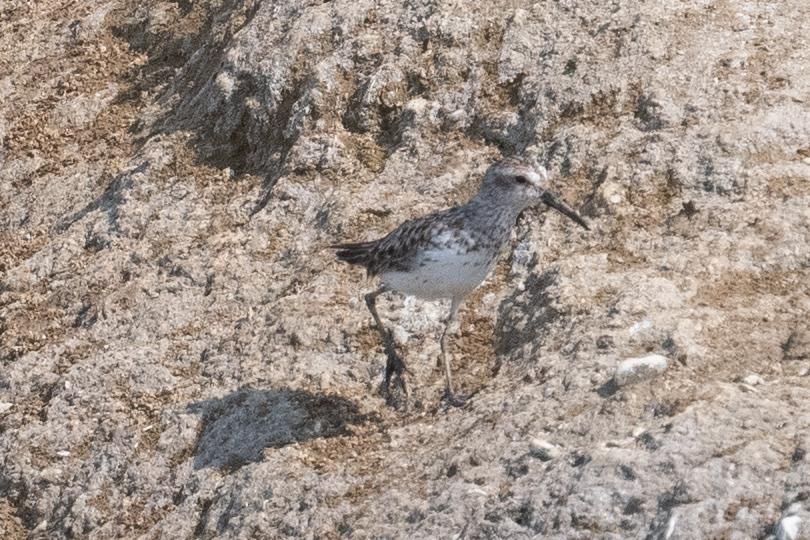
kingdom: Animalia
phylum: Chordata
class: Aves
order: Charadriiformes
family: Scolopacidae
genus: Calidris
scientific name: Calidris mauri
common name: Western sandpiper
